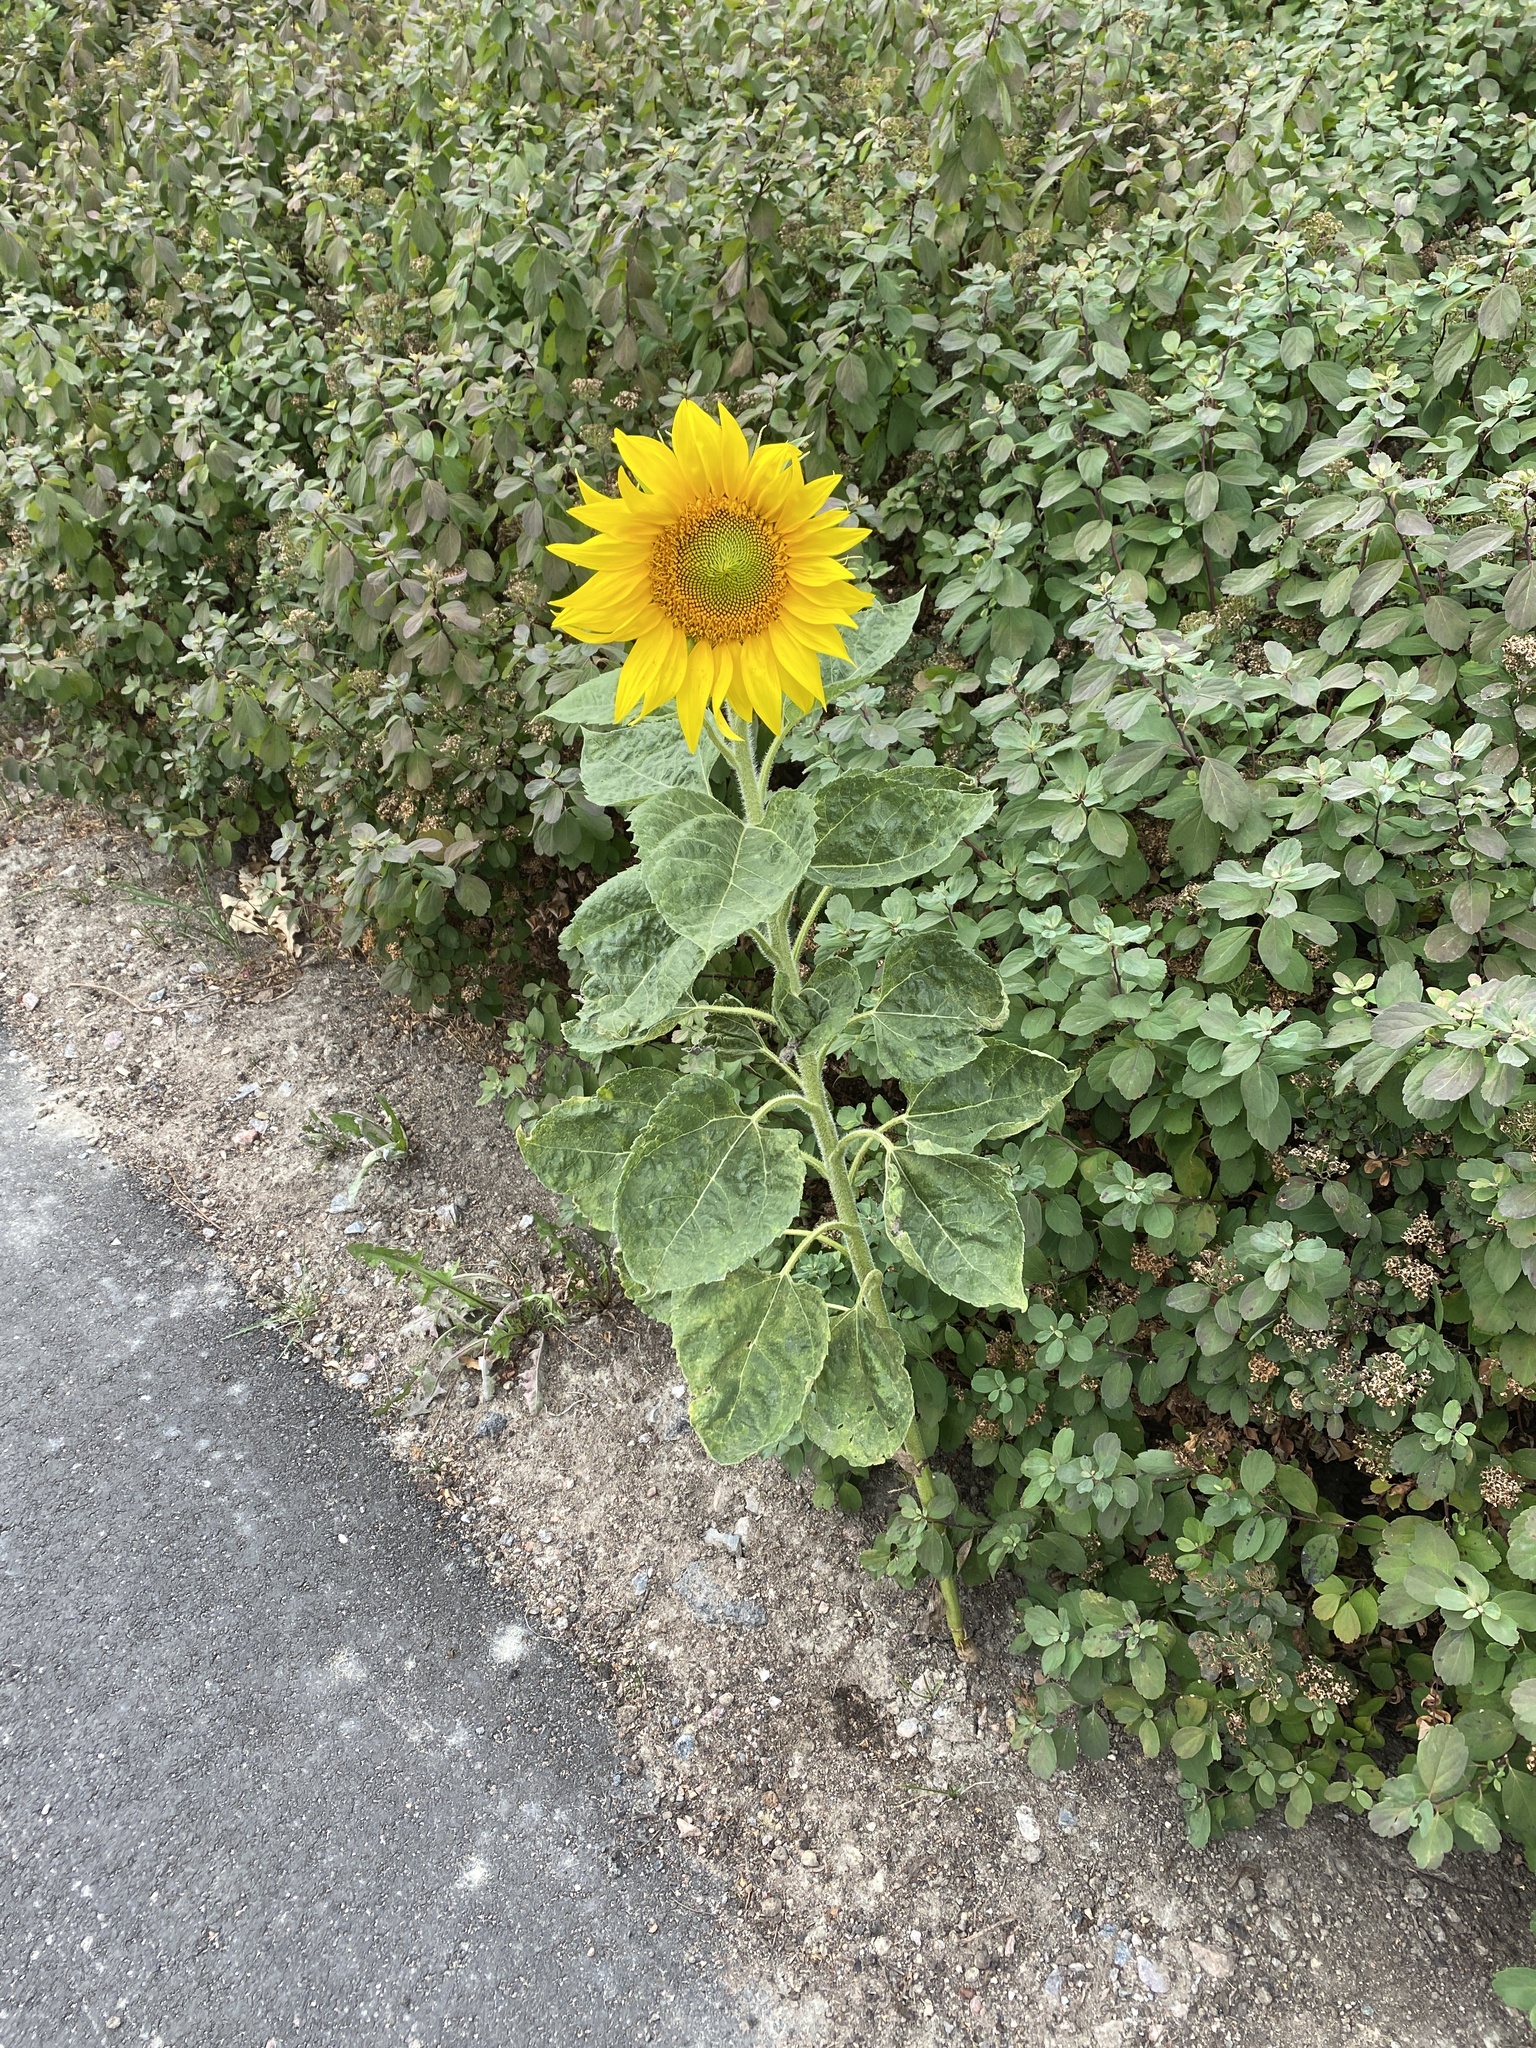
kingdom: Plantae
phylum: Tracheophyta
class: Magnoliopsida
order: Asterales
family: Asteraceae
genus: Helianthus
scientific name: Helianthus annuus
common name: Sunflower
